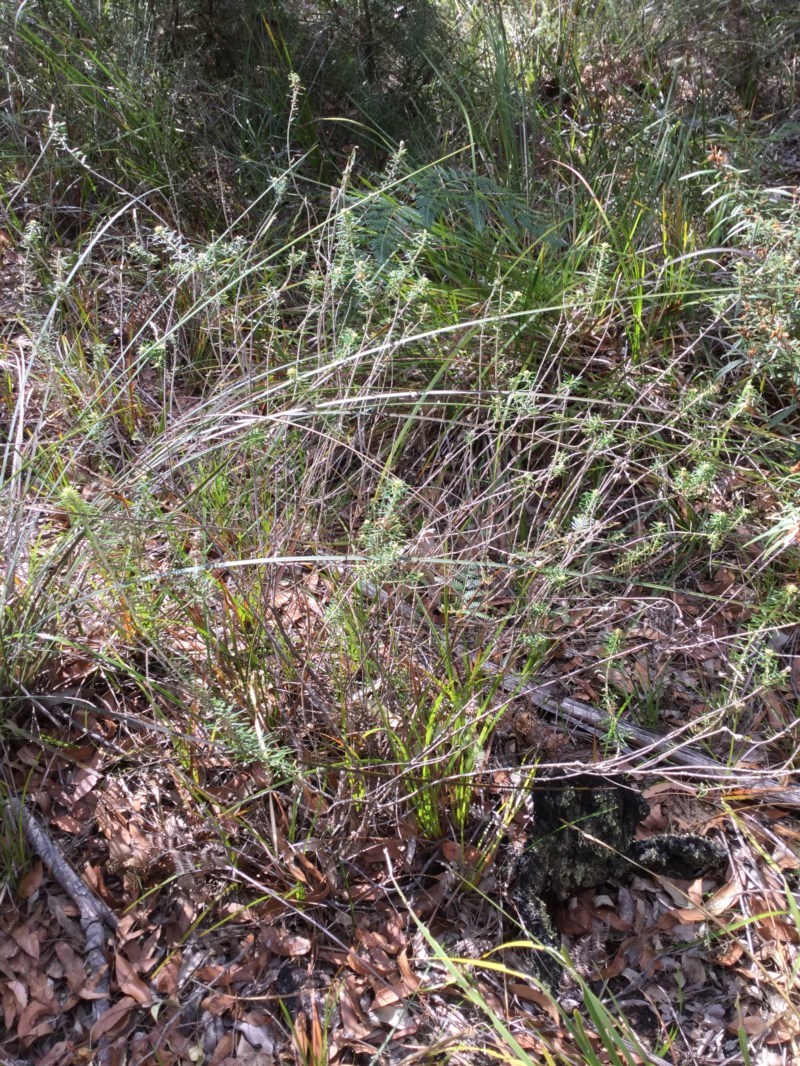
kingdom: Plantae
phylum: Tracheophyta
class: Magnoliopsida
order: Apiales
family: Araliaceae
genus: Astrotricha
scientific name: Astrotricha
